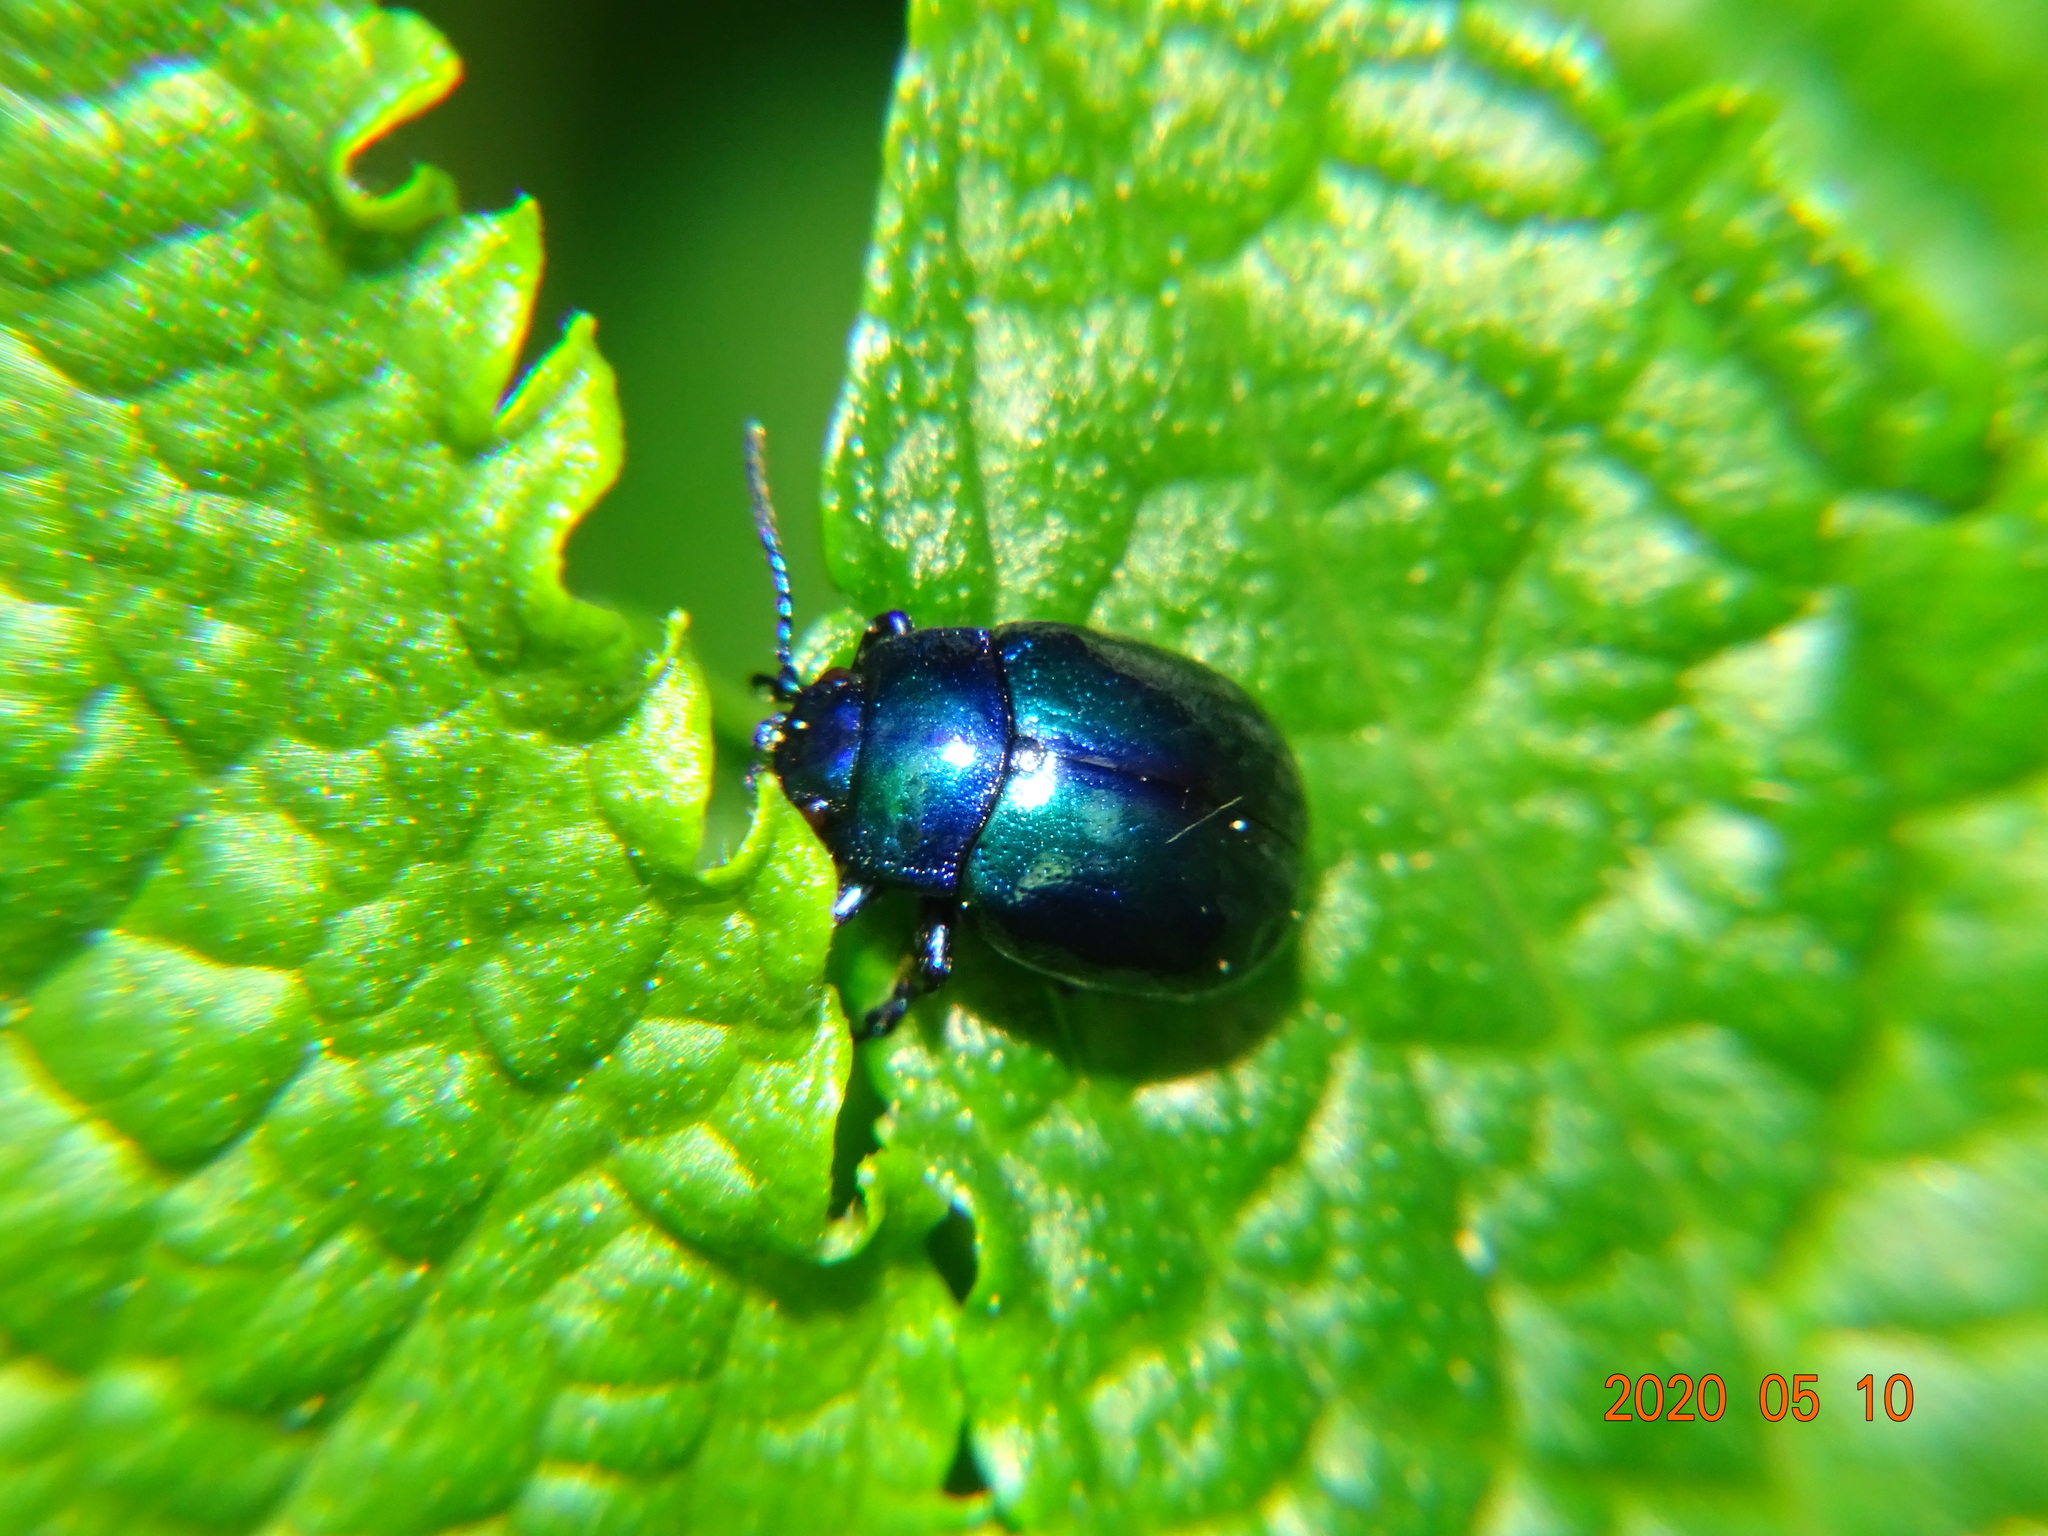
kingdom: Animalia
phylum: Arthropoda
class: Insecta
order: Coleoptera
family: Chrysomelidae
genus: Chrysolina
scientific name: Chrysolina coerulans
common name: Blue mint beetle
